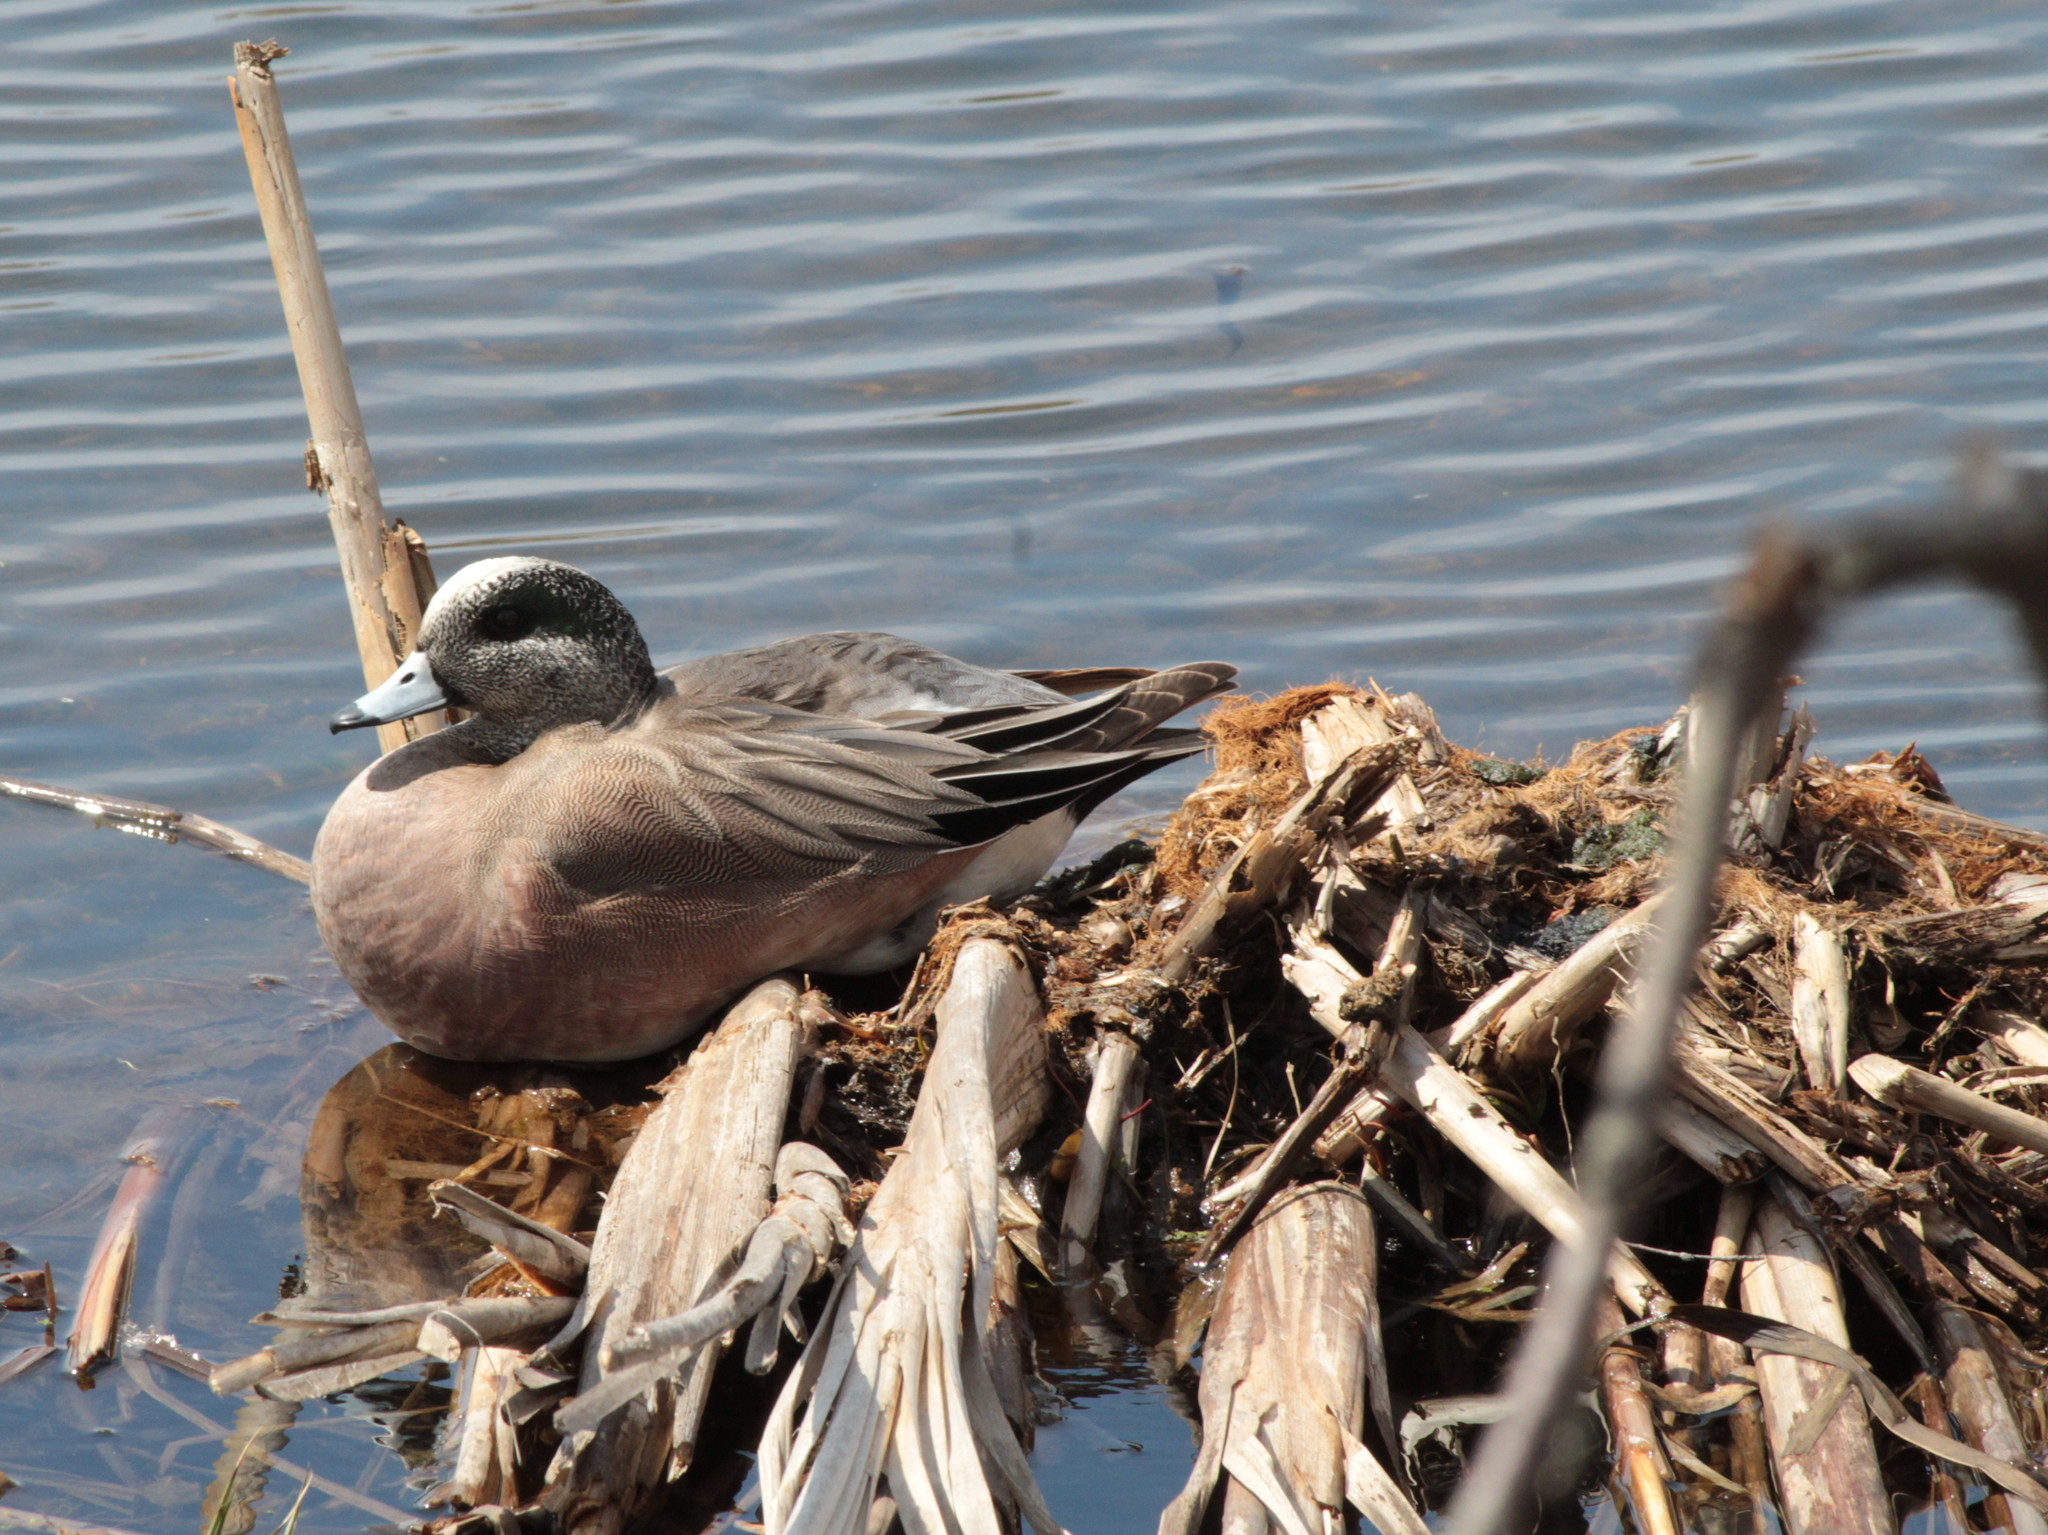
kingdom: Animalia
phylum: Chordata
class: Aves
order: Anseriformes
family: Anatidae
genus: Mareca
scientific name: Mareca americana
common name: American wigeon
